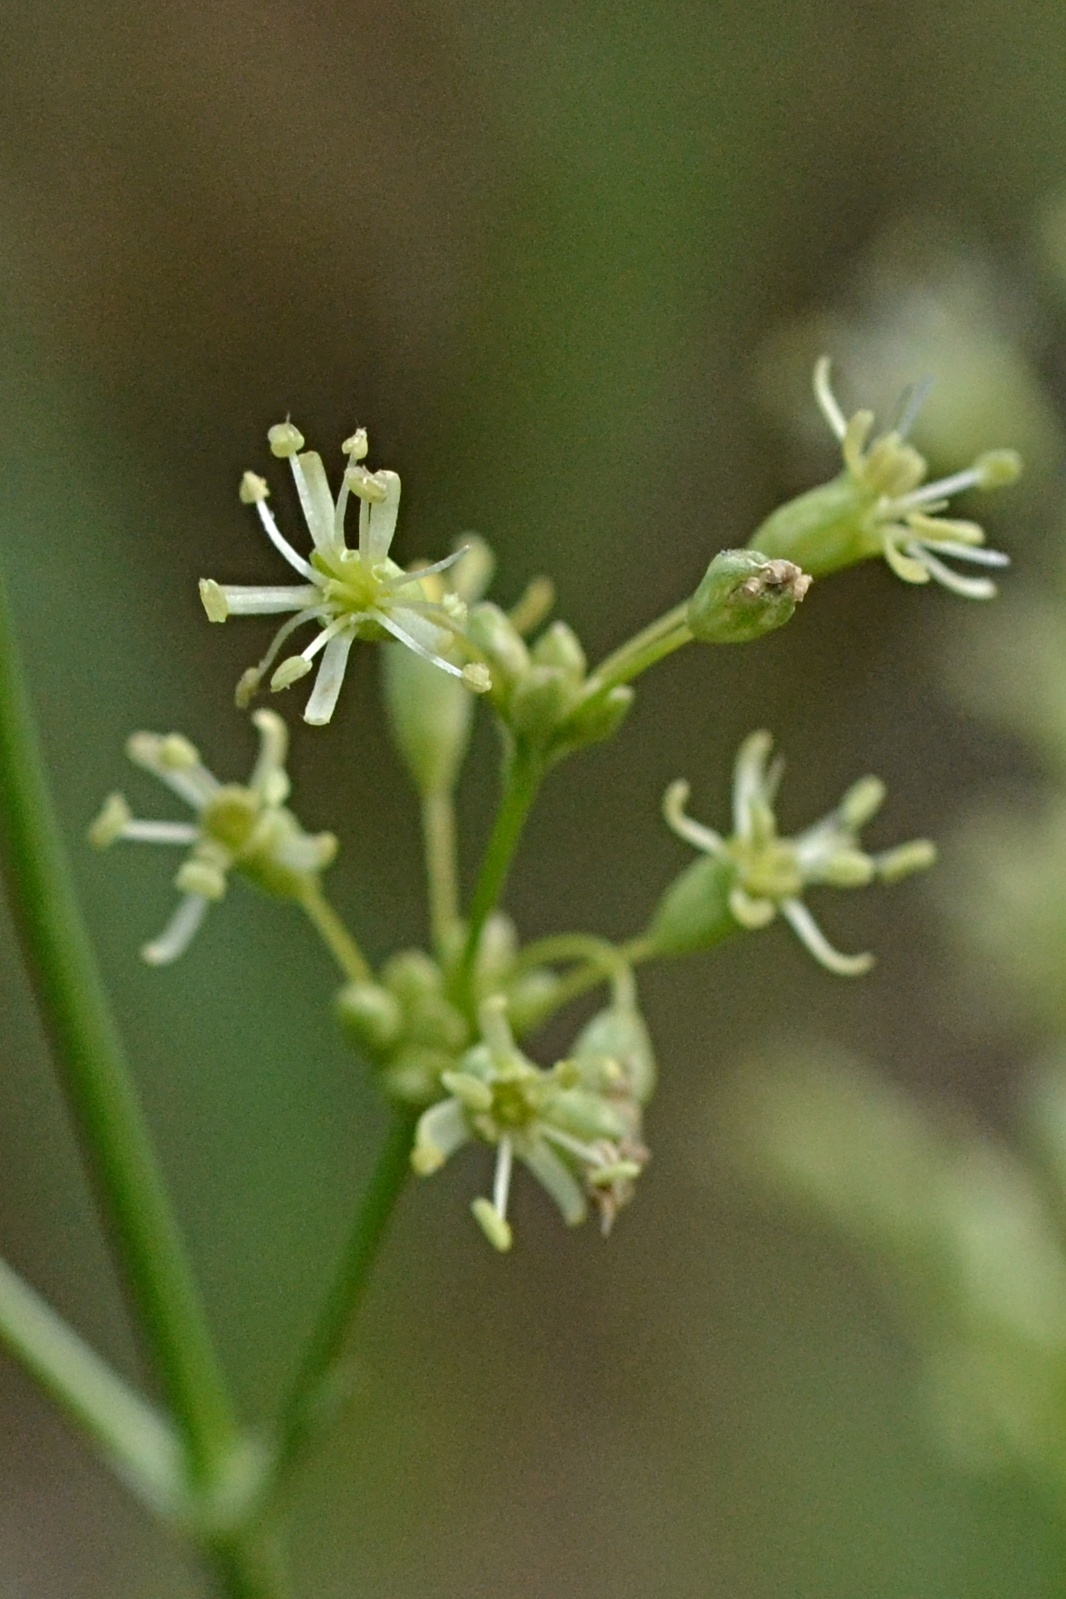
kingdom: Plantae
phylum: Tracheophyta
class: Magnoliopsida
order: Caryophyllales
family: Caryophyllaceae
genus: Silene
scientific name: Silene otites
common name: Spanish catchfly
